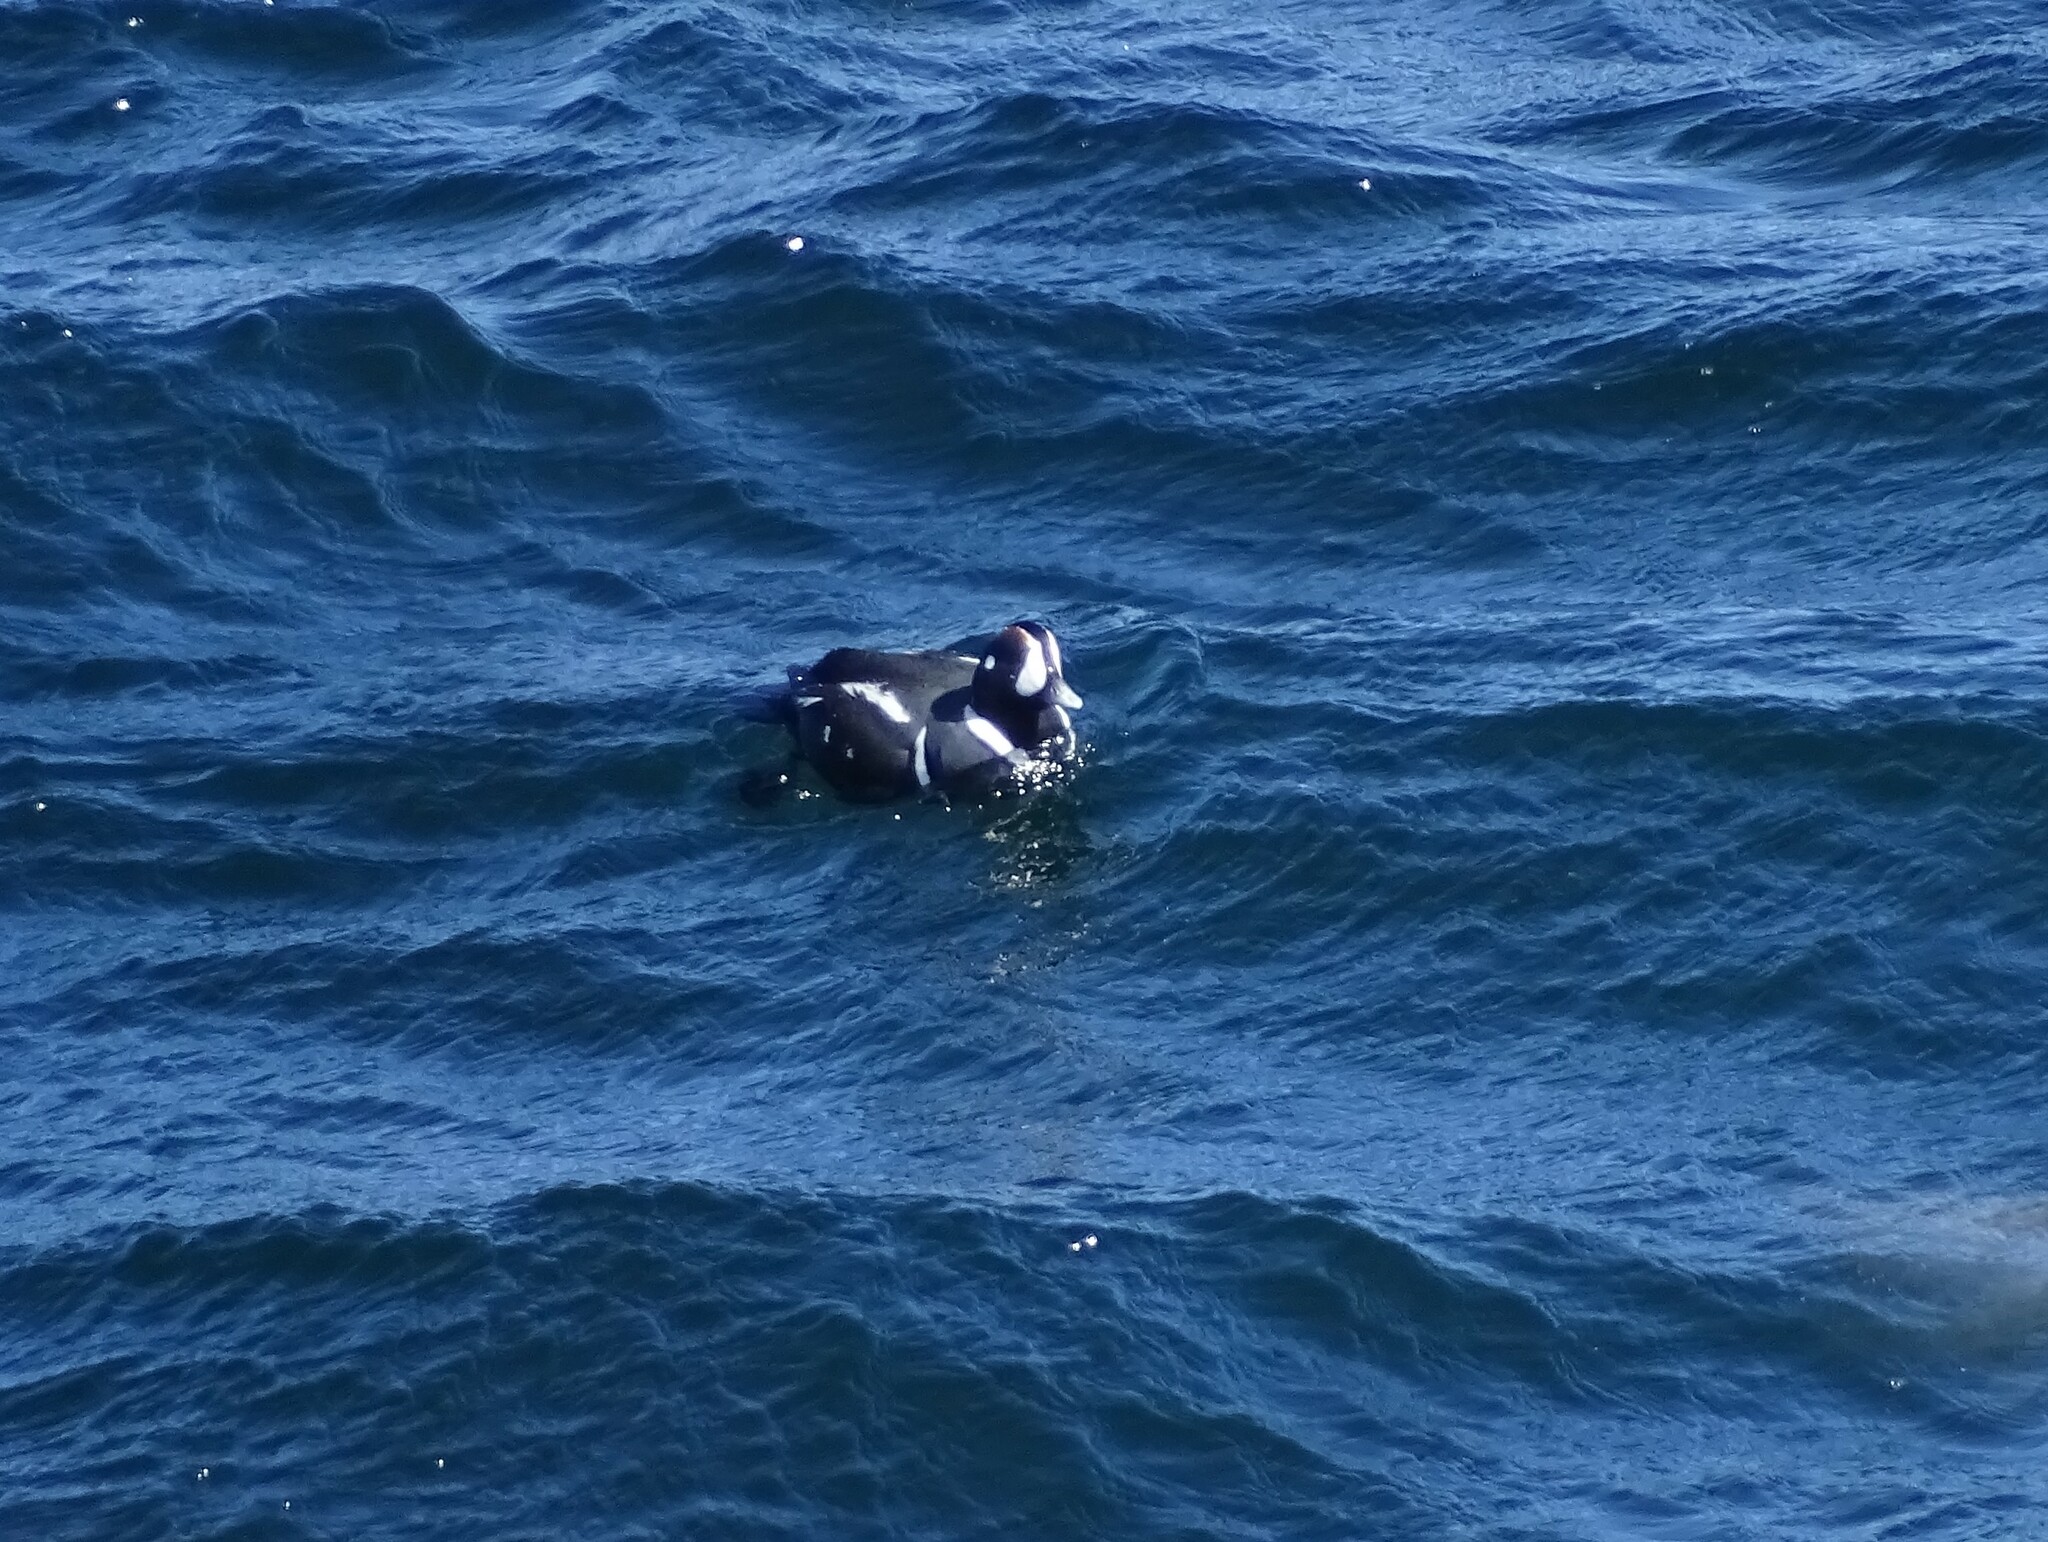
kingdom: Animalia
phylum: Chordata
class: Aves
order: Anseriformes
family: Anatidae
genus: Histrionicus
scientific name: Histrionicus histrionicus
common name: Harlequin duck
